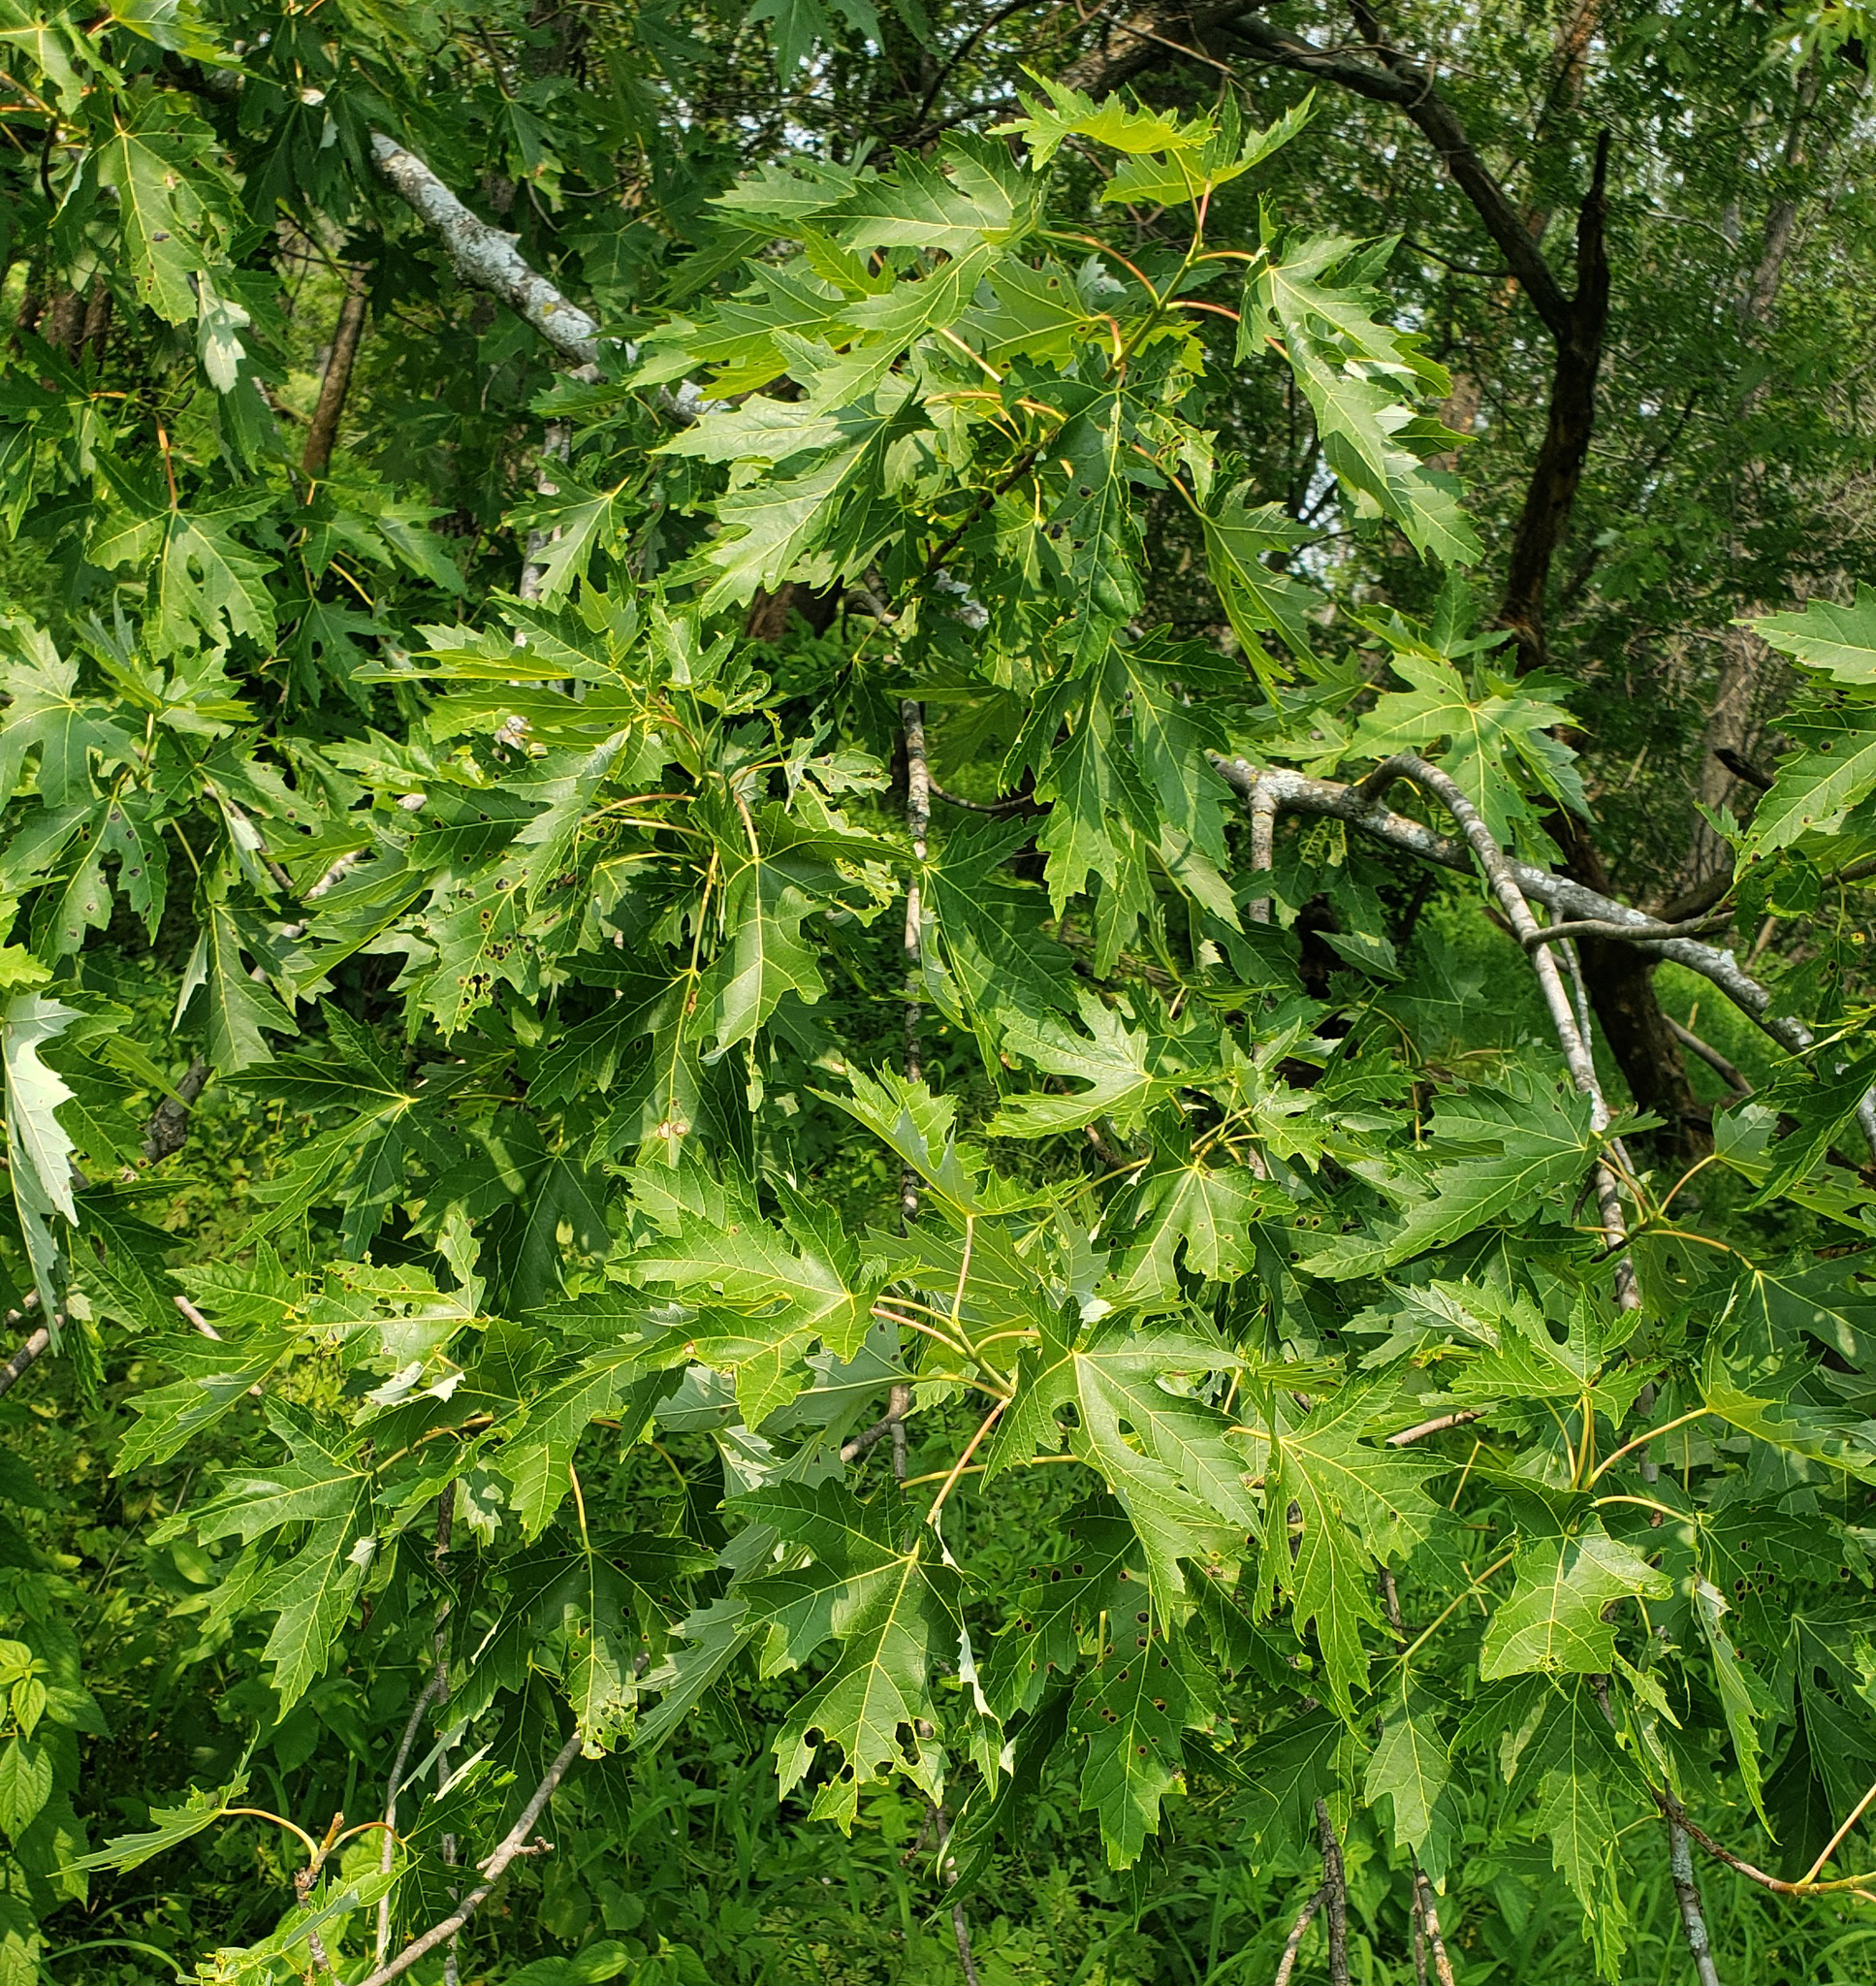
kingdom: Plantae
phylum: Tracheophyta
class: Magnoliopsida
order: Sapindales
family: Sapindaceae
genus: Acer
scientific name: Acer saccharinum
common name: Silver maple
